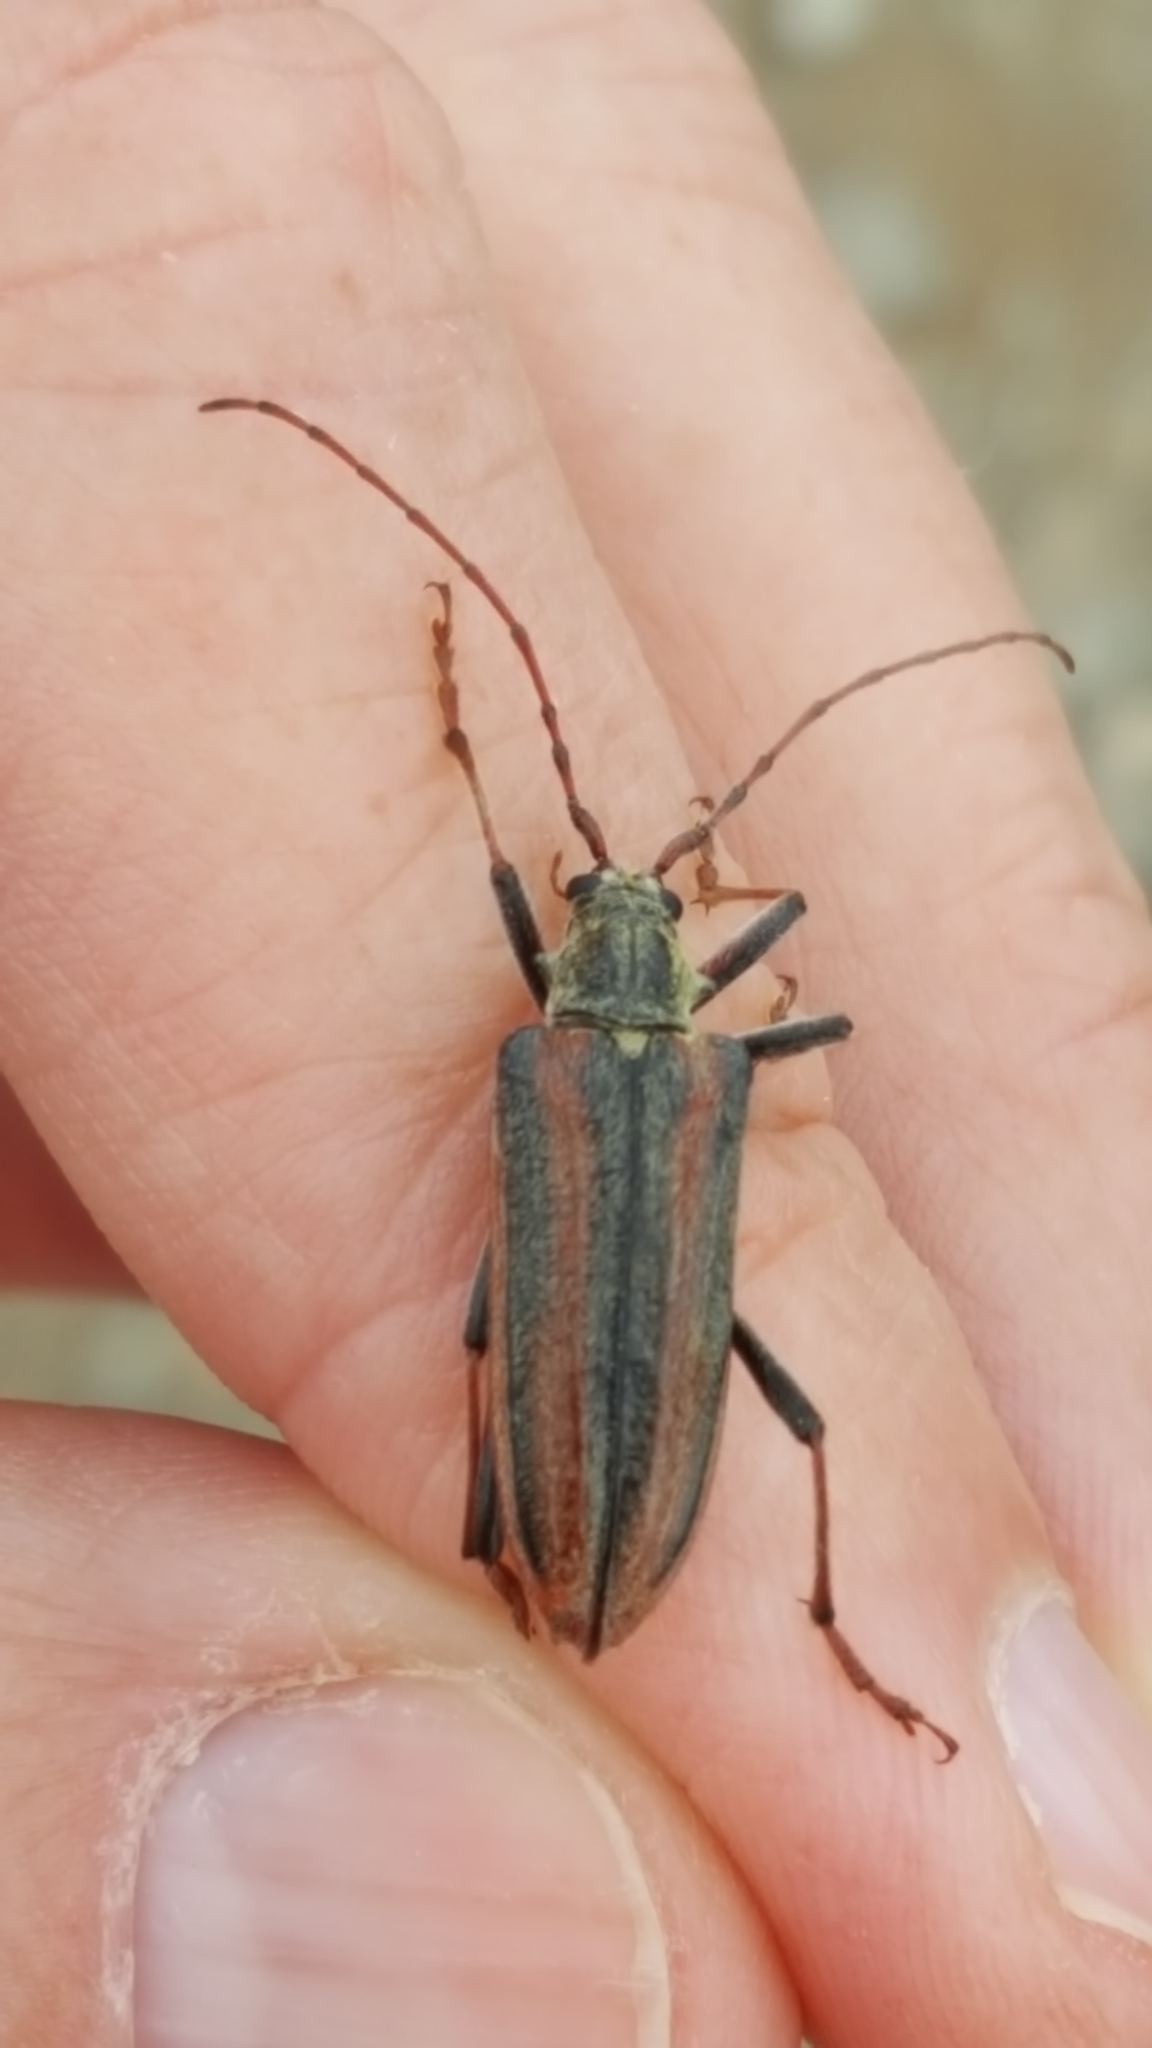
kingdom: Animalia
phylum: Arthropoda
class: Insecta
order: Coleoptera
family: Cerambycidae
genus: Oxymirus
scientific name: Oxymirus cursor
